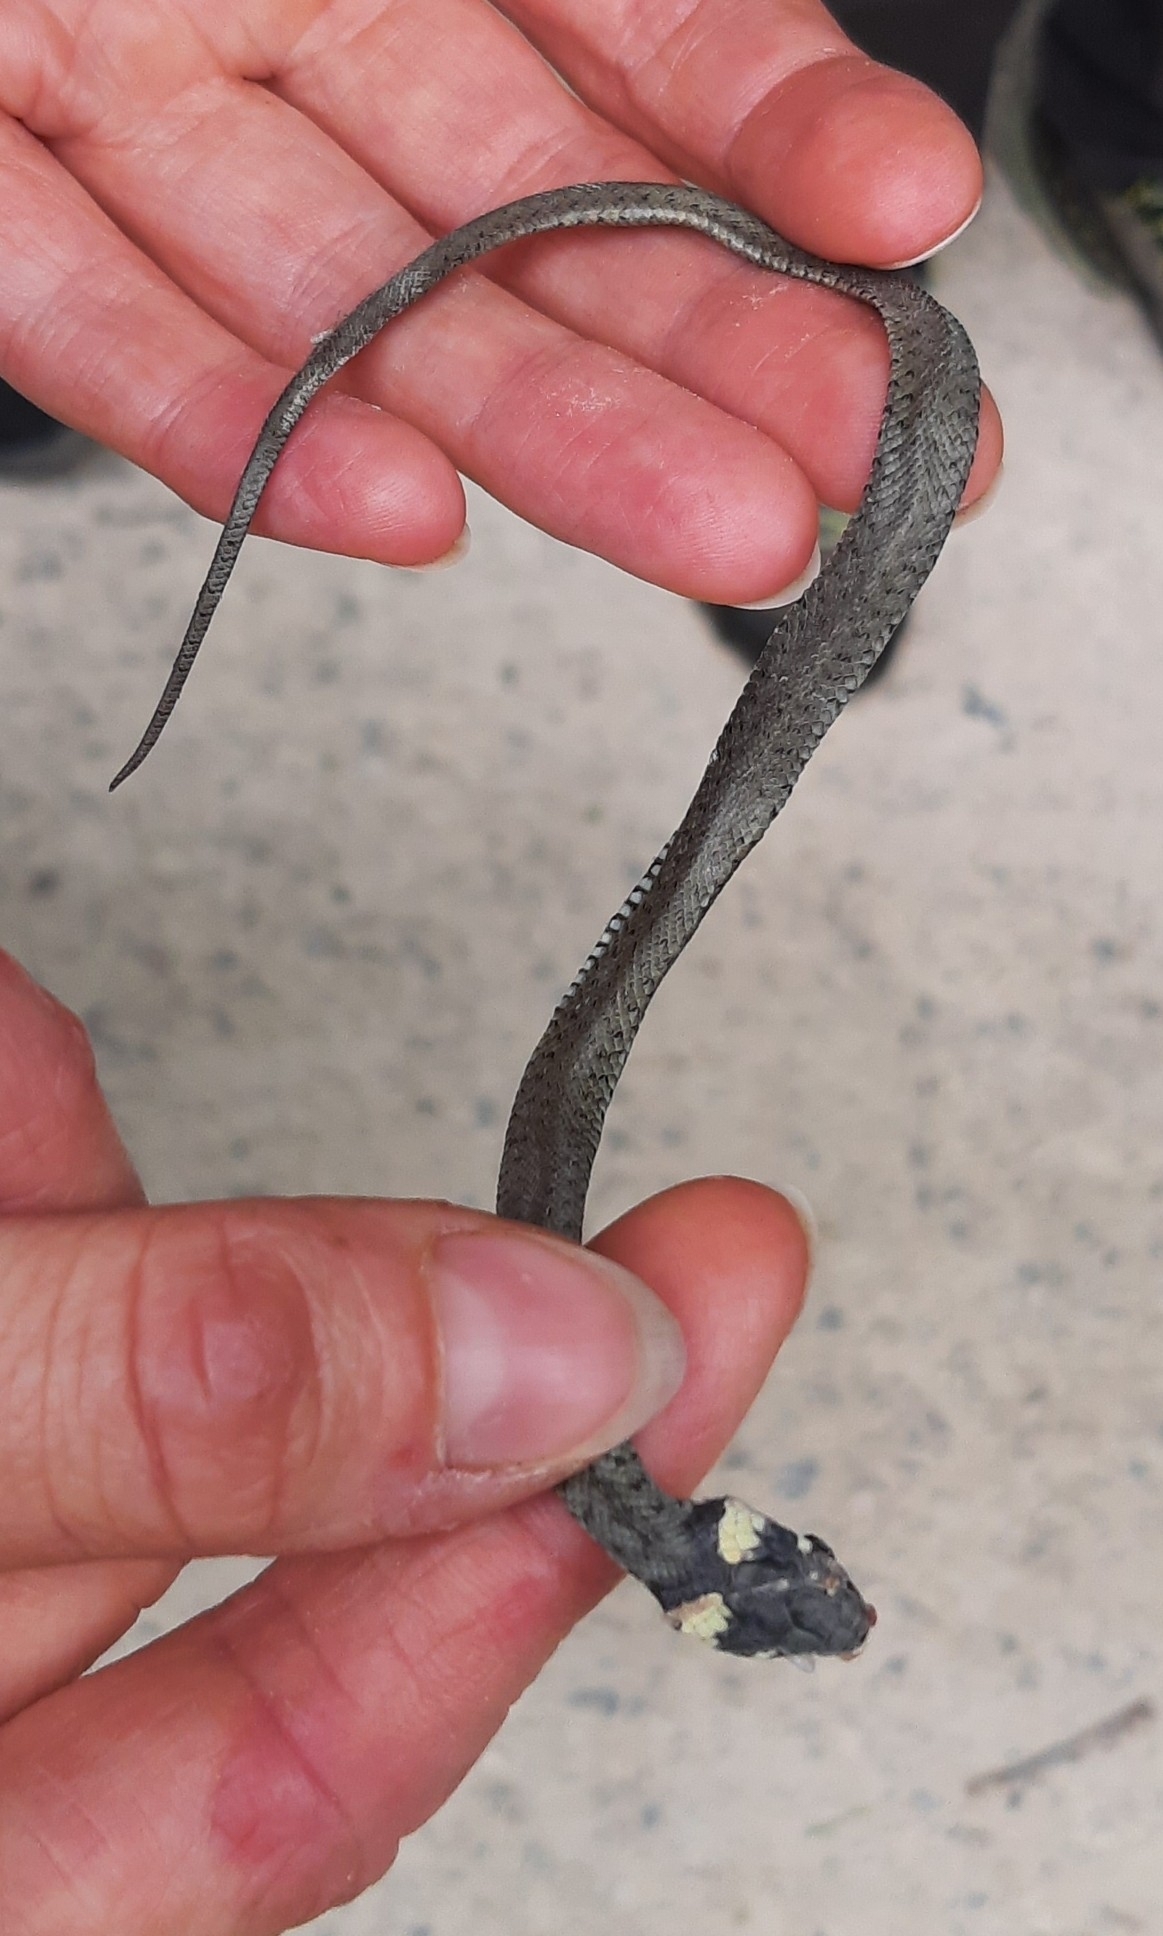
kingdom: Animalia
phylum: Chordata
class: Squamata
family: Colubridae
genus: Natrix
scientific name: Natrix natrix
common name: Grass snake
